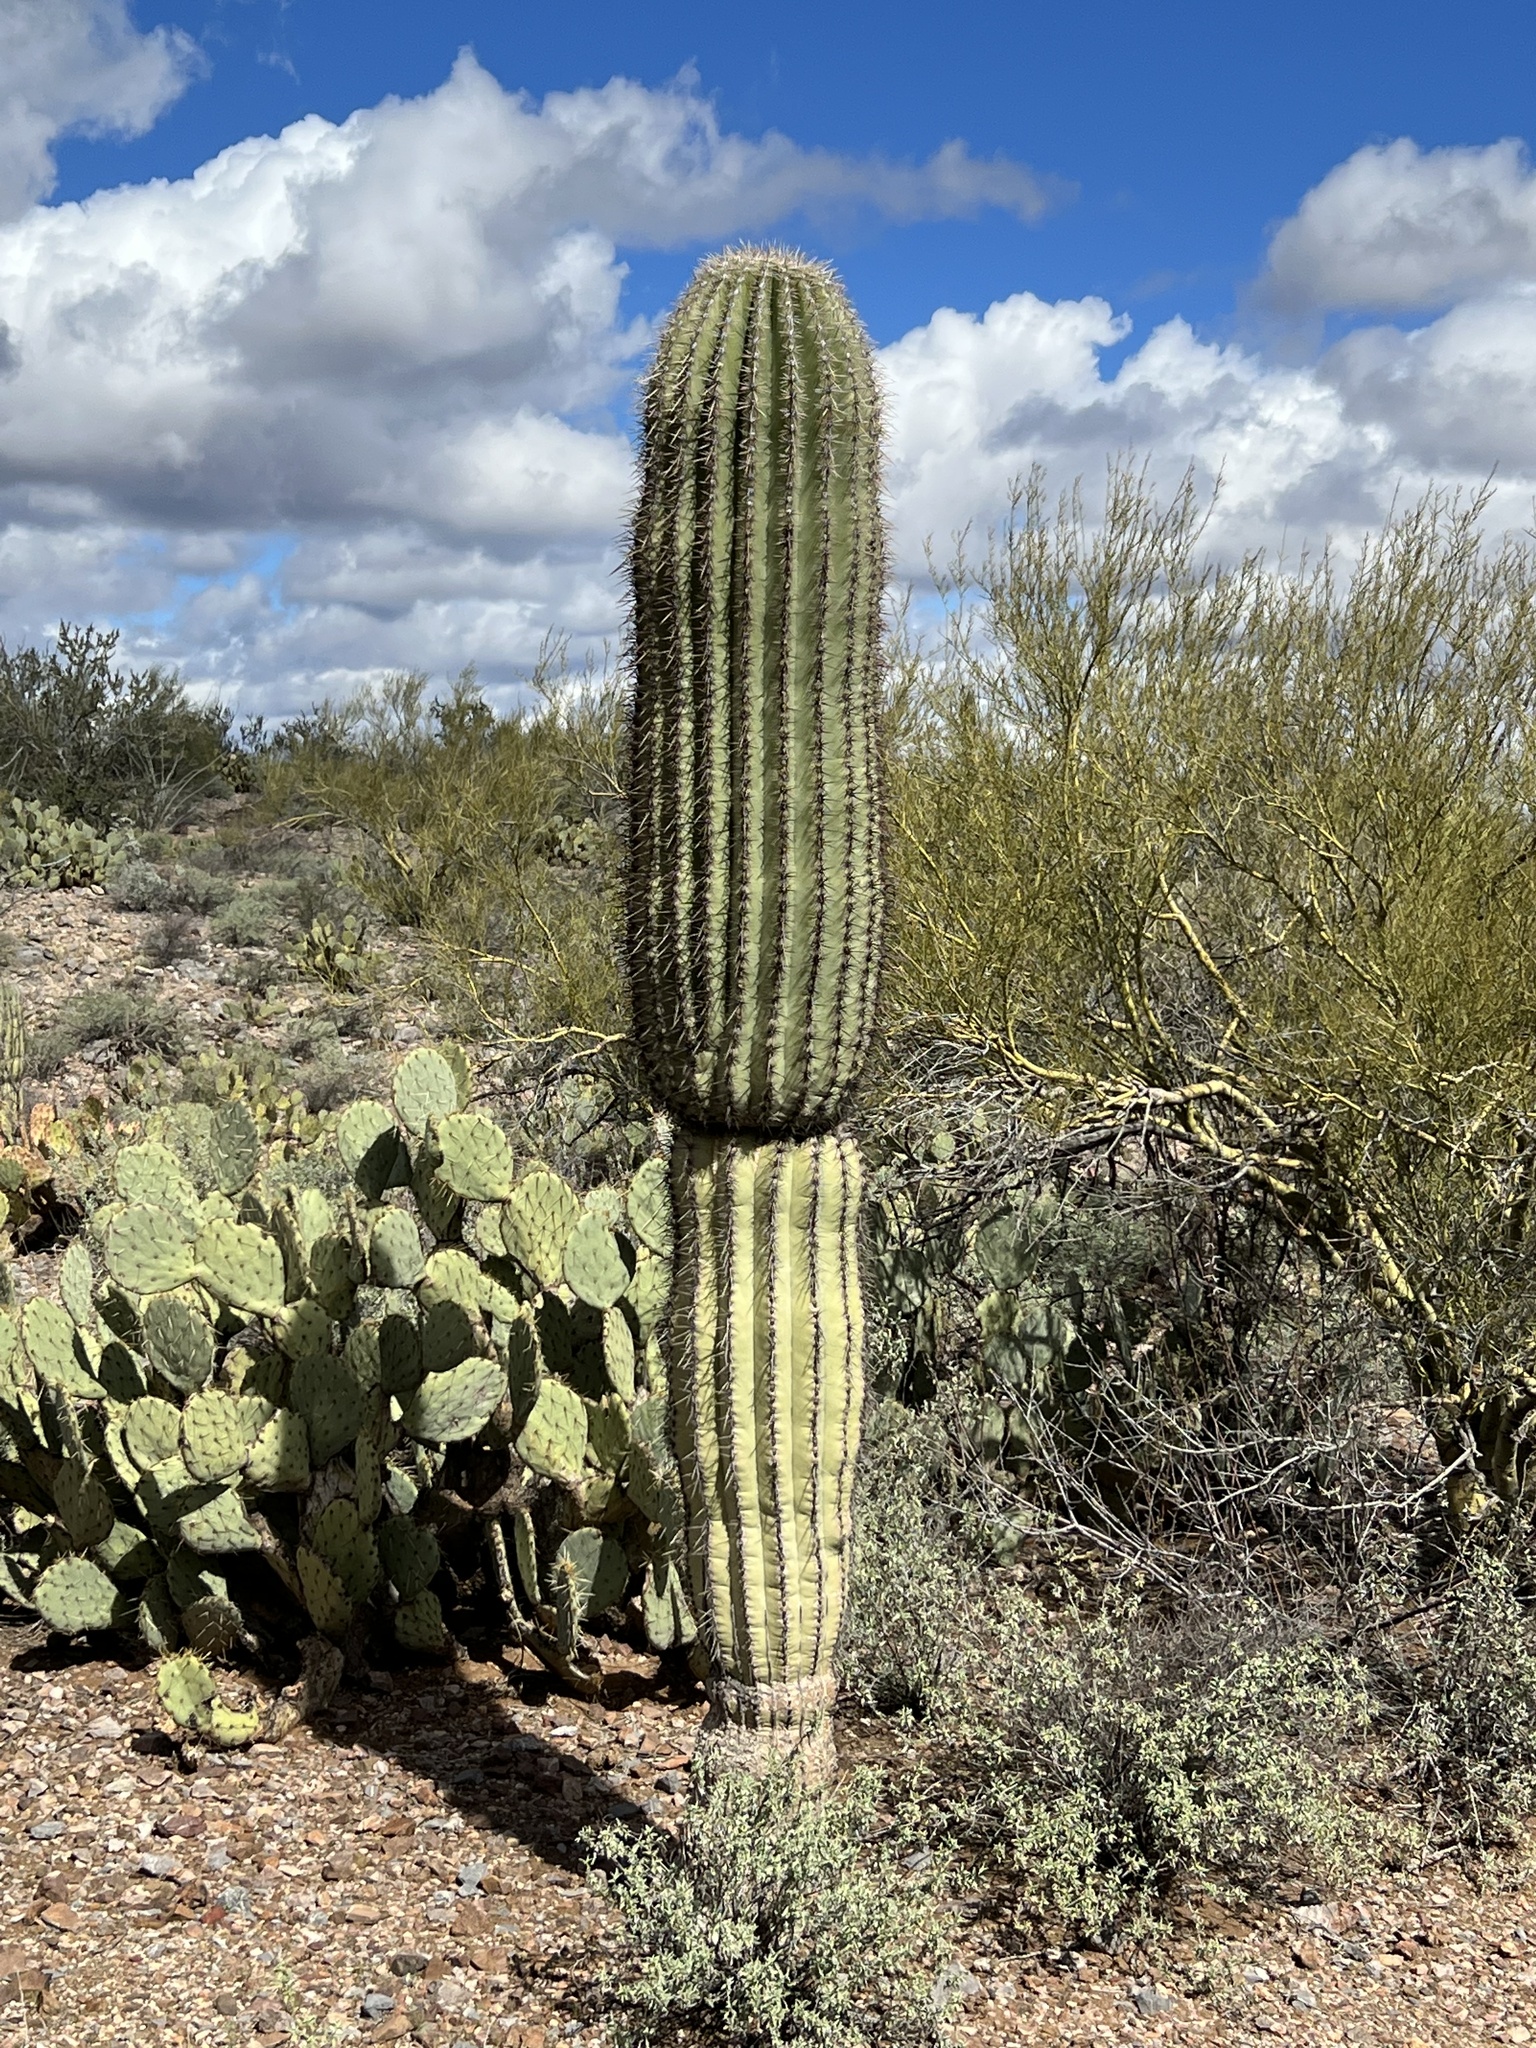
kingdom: Plantae
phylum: Tracheophyta
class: Magnoliopsida
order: Caryophyllales
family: Cactaceae
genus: Carnegiea
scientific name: Carnegiea gigantea
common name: Saguaro
